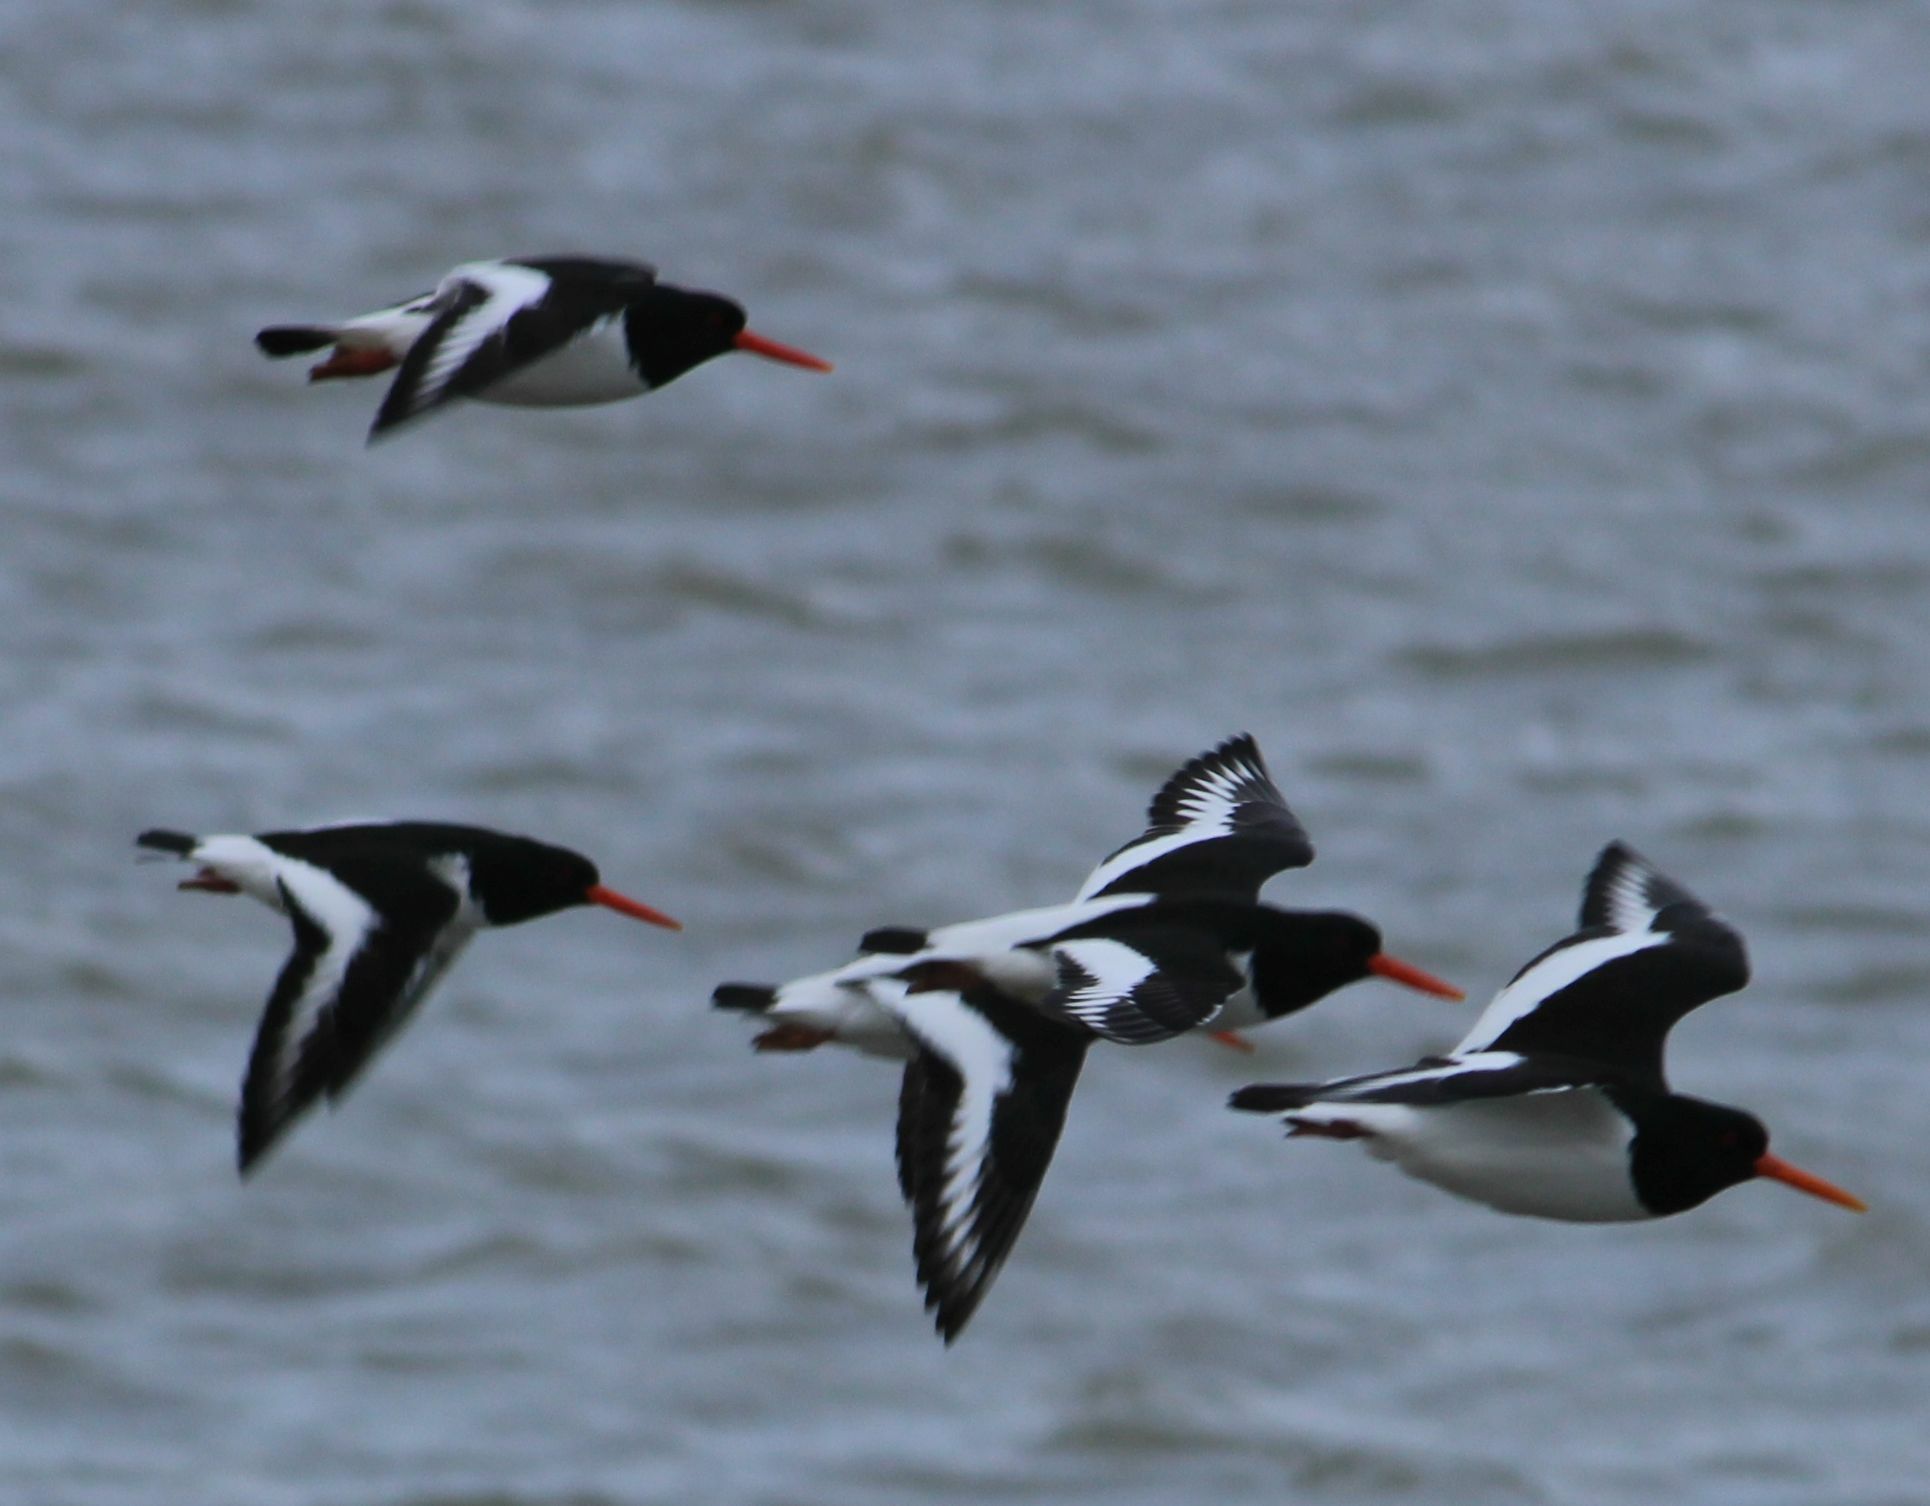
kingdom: Animalia
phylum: Chordata
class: Aves
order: Charadriiformes
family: Haematopodidae
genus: Haematopus
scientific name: Haematopus ostralegus
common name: Eurasian oystercatcher
